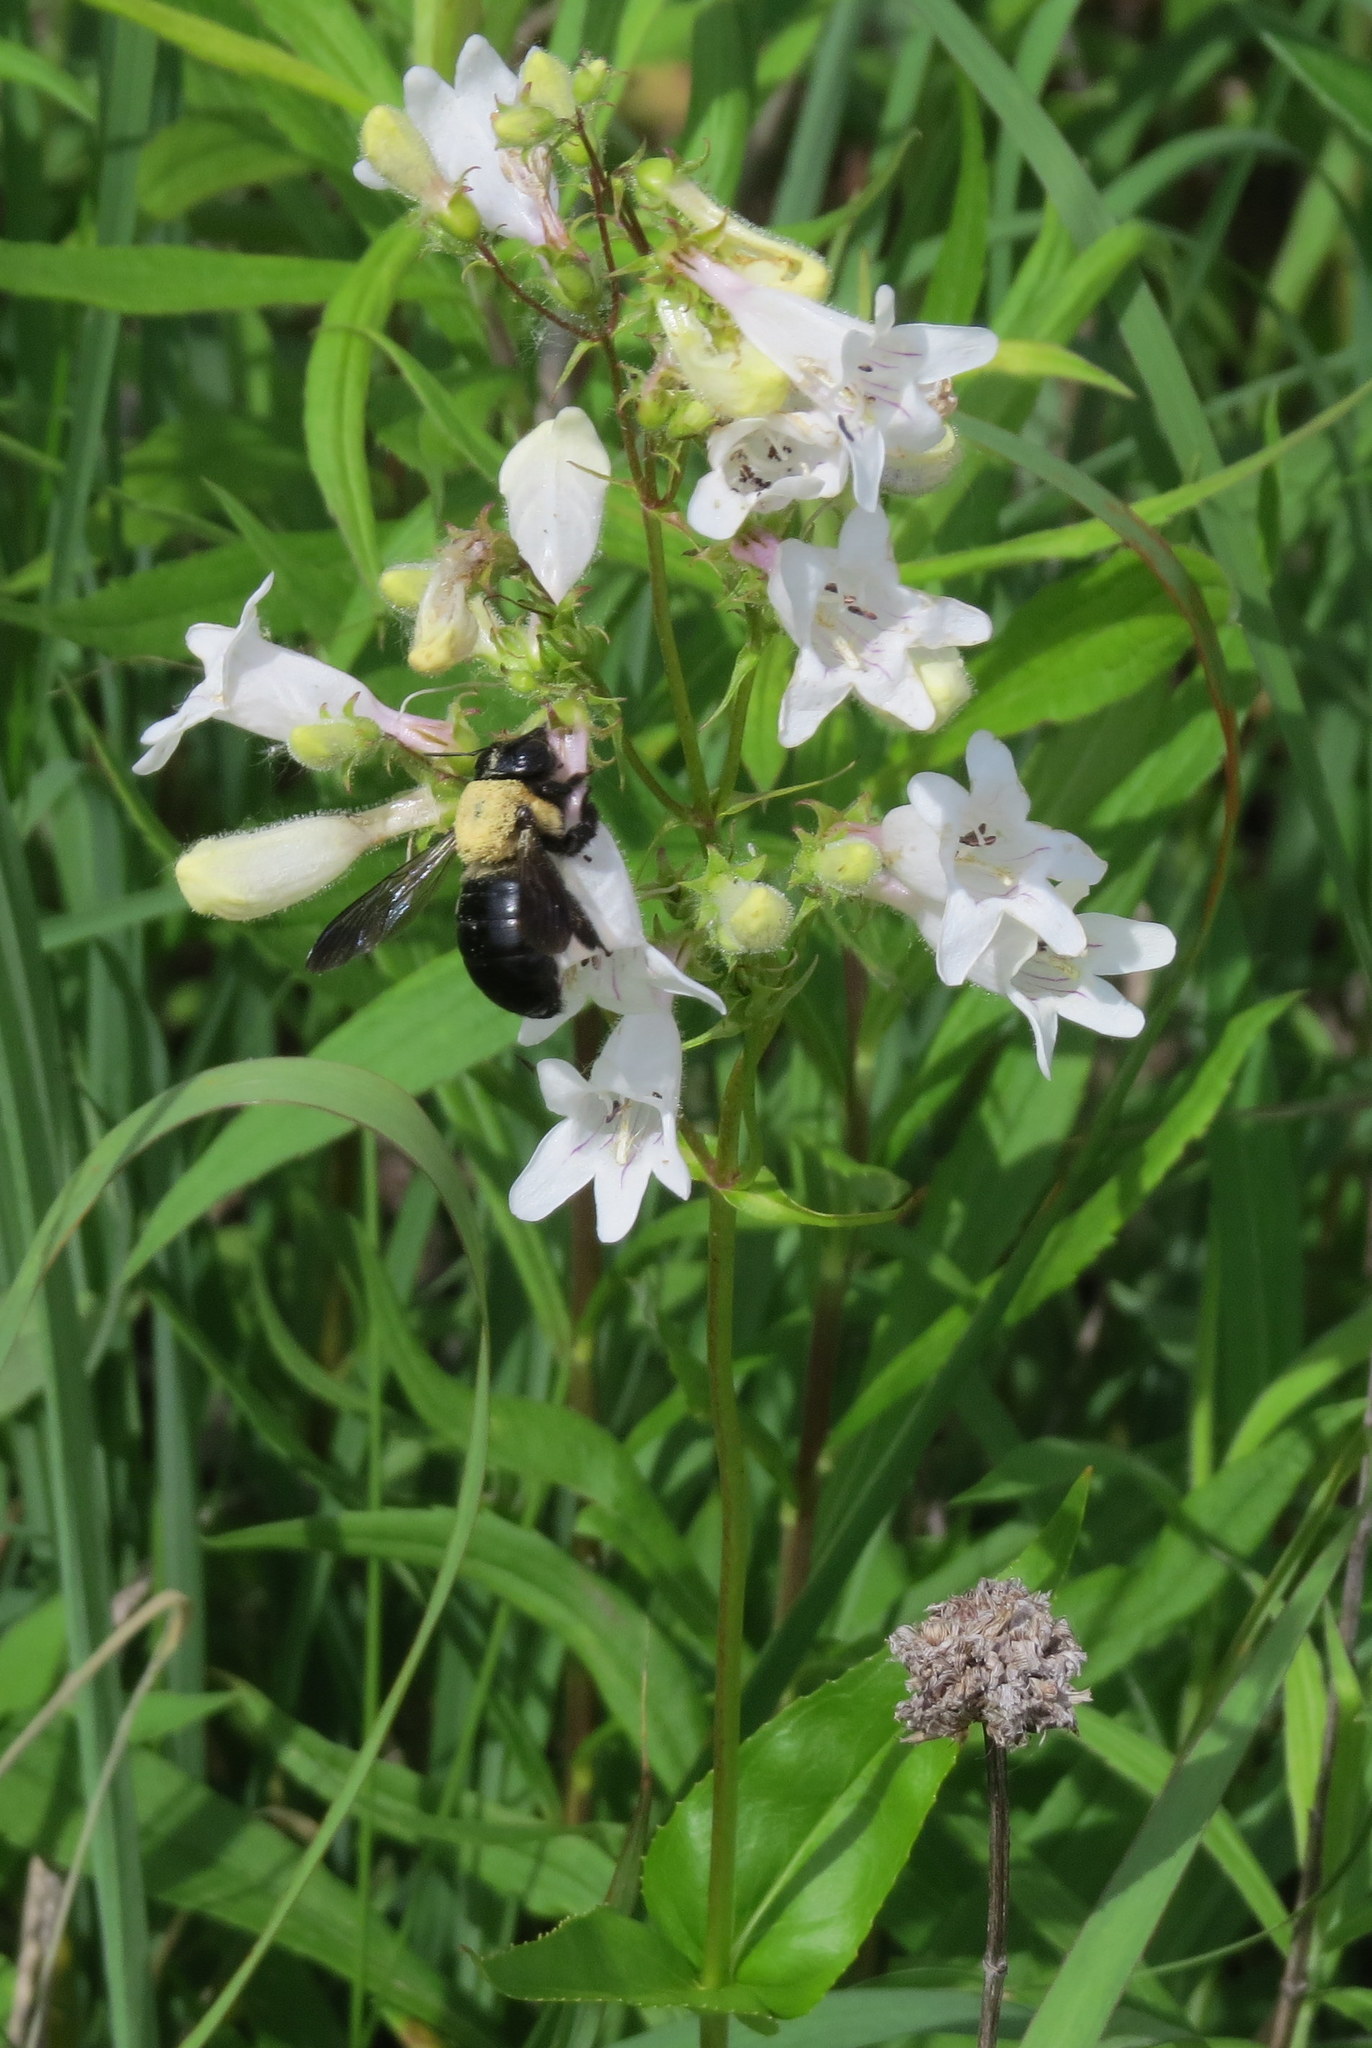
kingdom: Plantae
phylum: Tracheophyta
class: Magnoliopsida
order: Lamiales
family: Plantaginaceae
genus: Penstemon
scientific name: Penstemon digitalis
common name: Foxglove beardtongue
